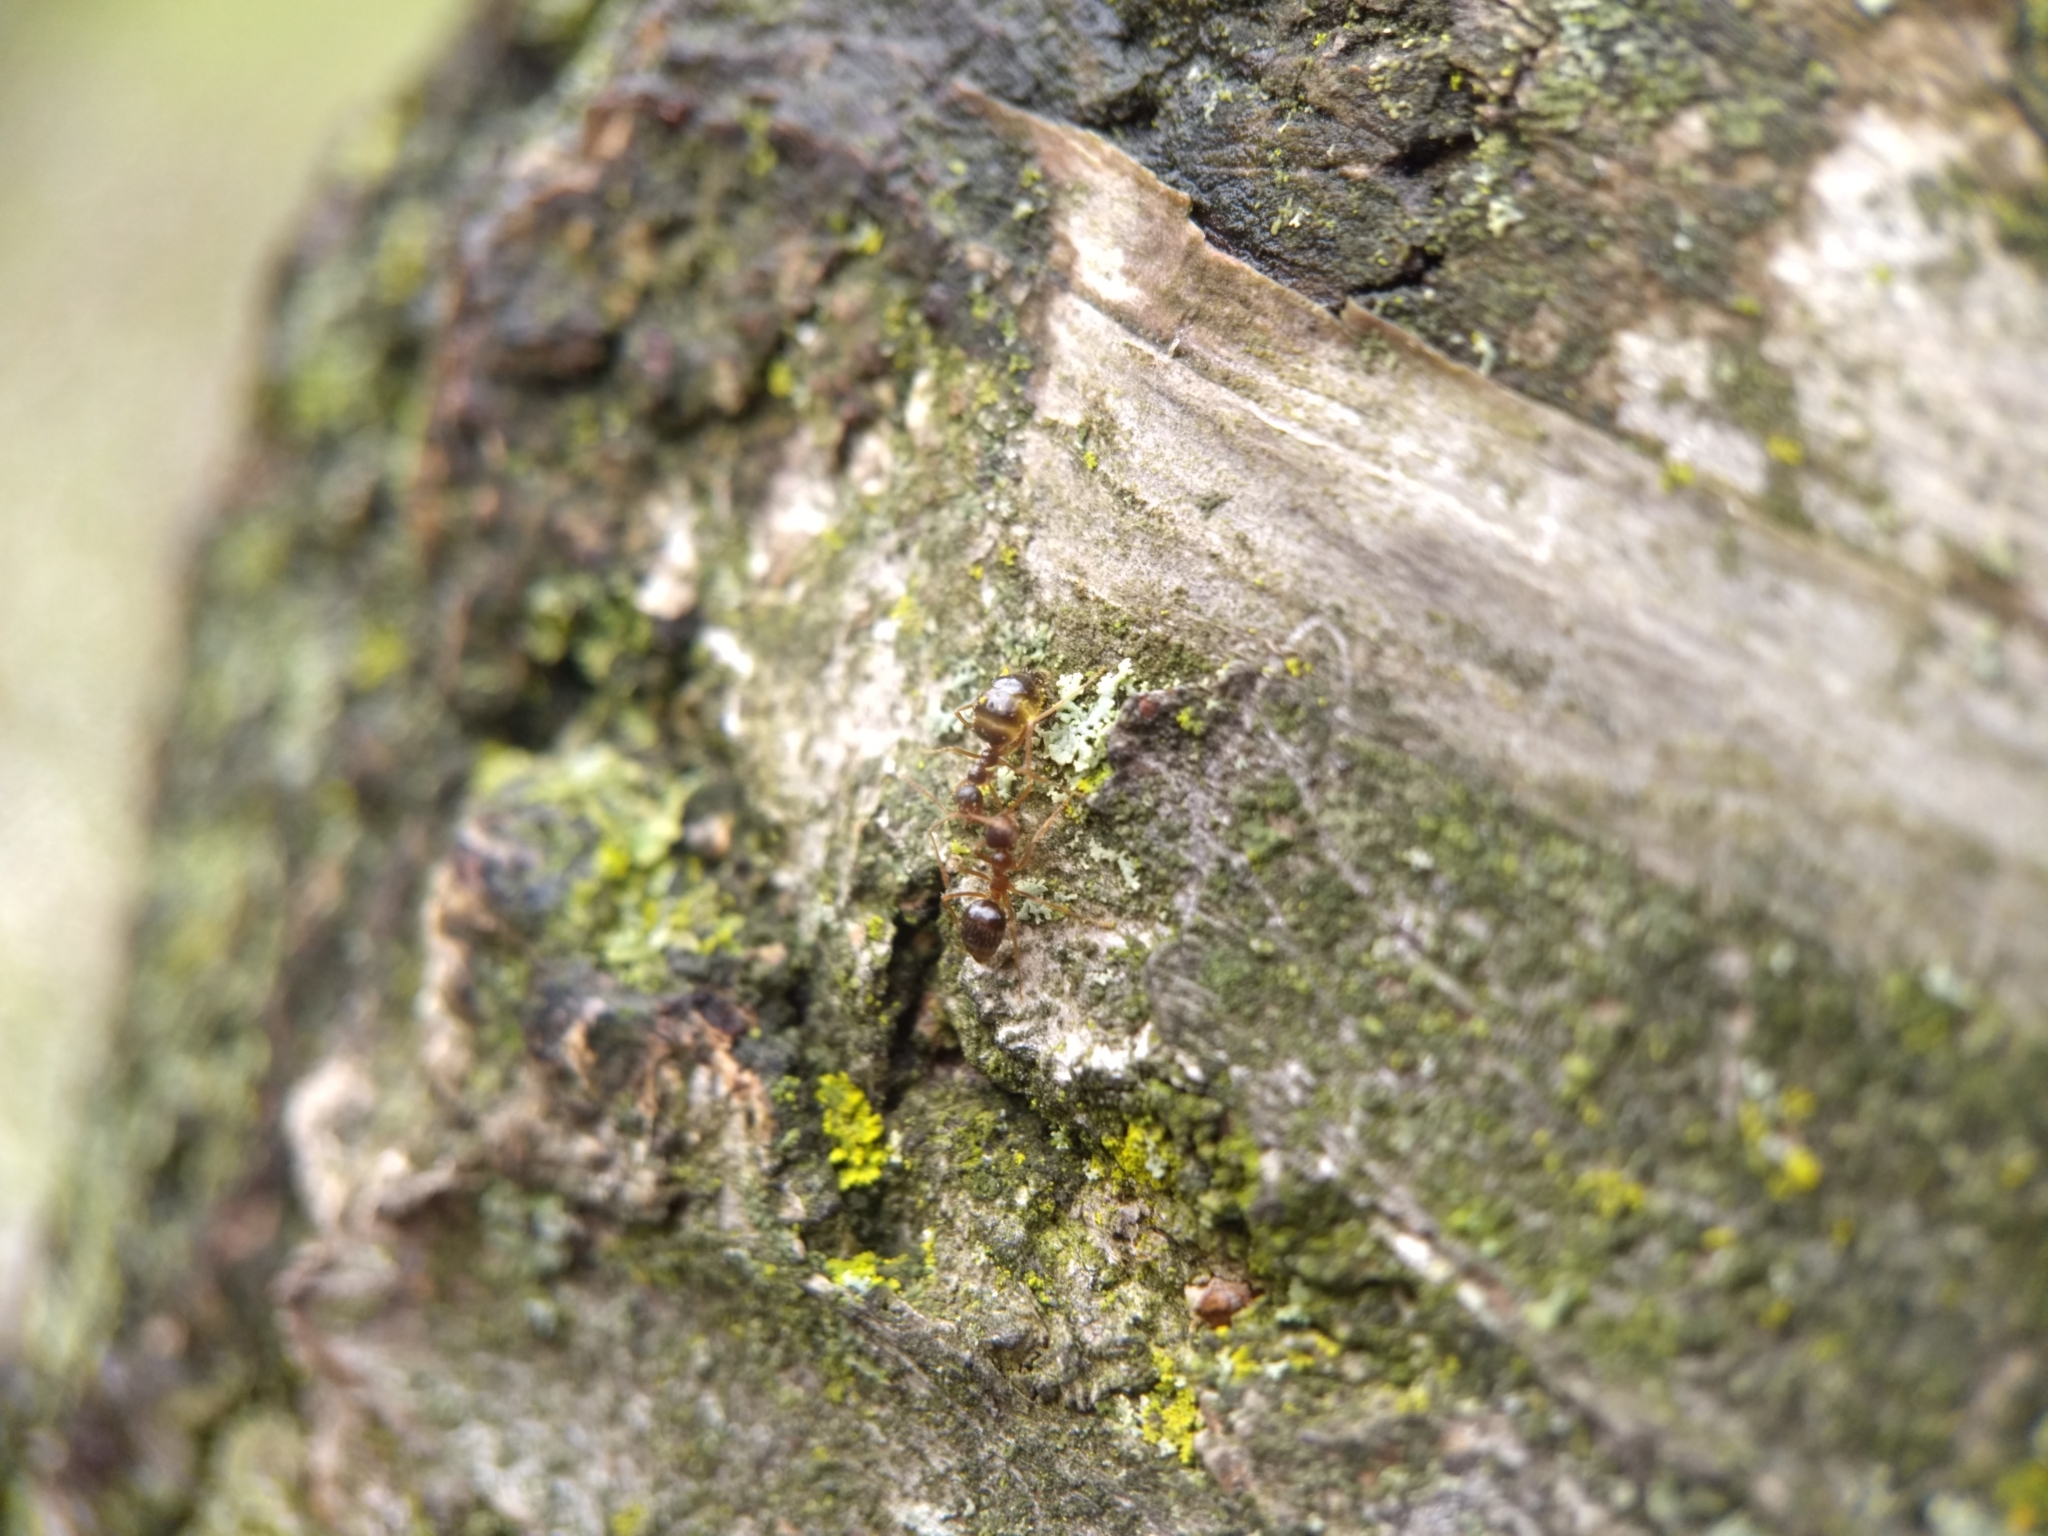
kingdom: Animalia
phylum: Arthropoda
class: Insecta
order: Hymenoptera
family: Formicidae
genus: Prenolepis
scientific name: Prenolepis imparis
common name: Small honey ant
